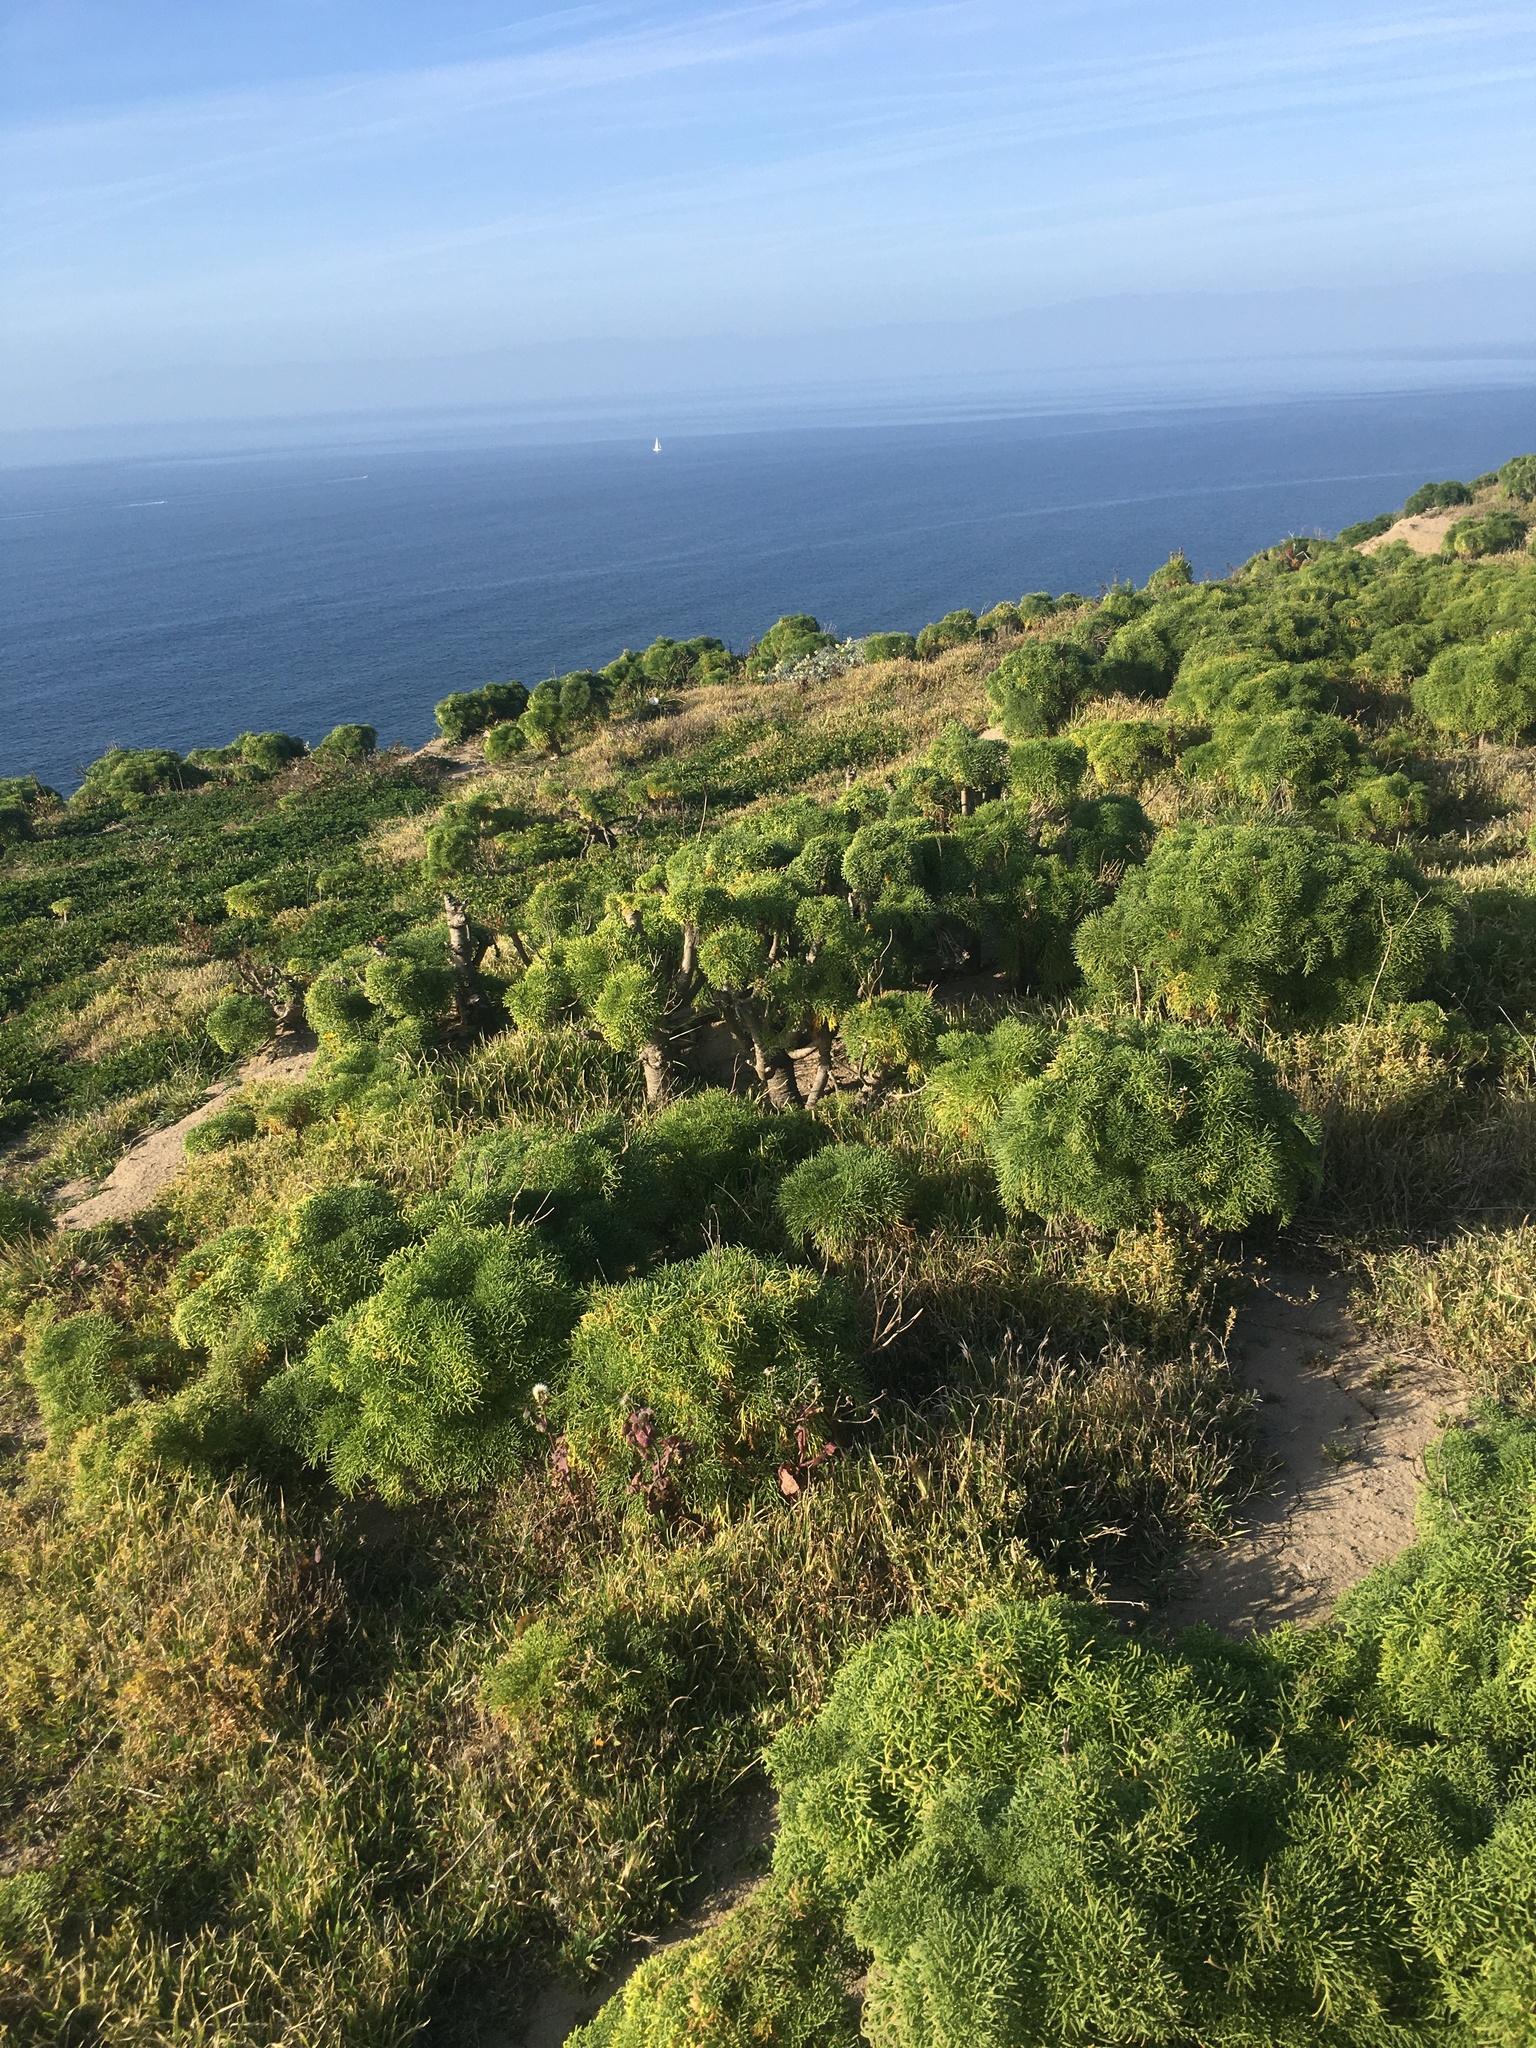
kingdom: Plantae
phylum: Tracheophyta
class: Magnoliopsida
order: Asterales
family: Asteraceae
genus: Coreopsis
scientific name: Coreopsis gigantea
